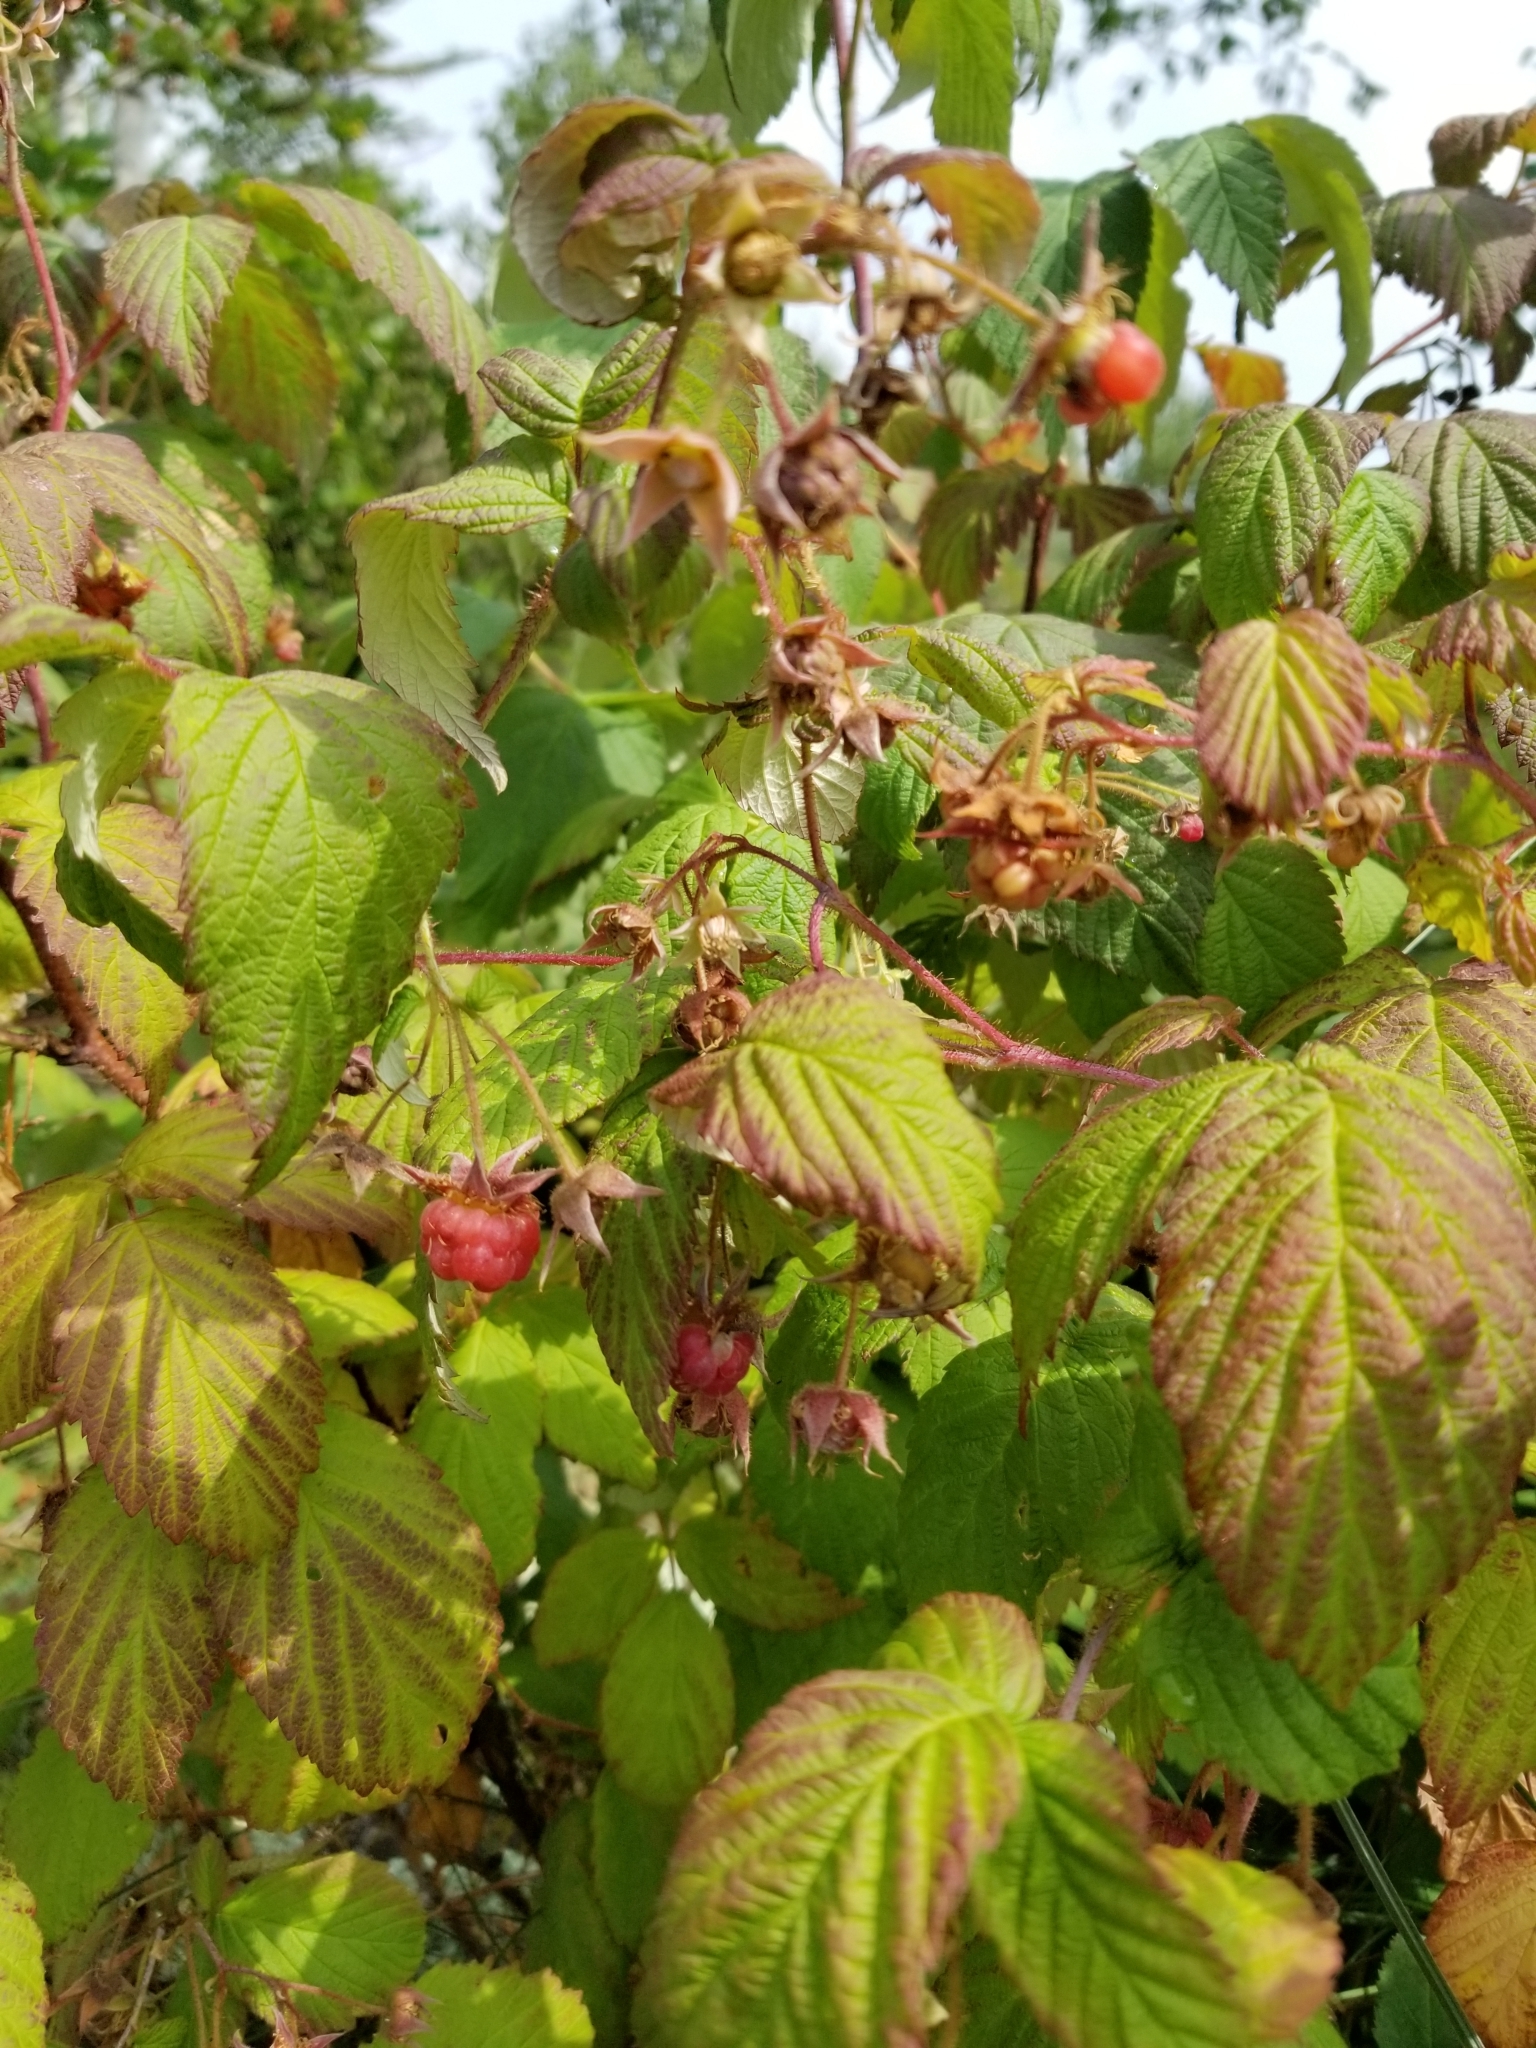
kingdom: Plantae
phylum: Tracheophyta
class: Magnoliopsida
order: Rosales
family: Rosaceae
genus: Rubus
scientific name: Rubus idaeus
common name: Raspberry
